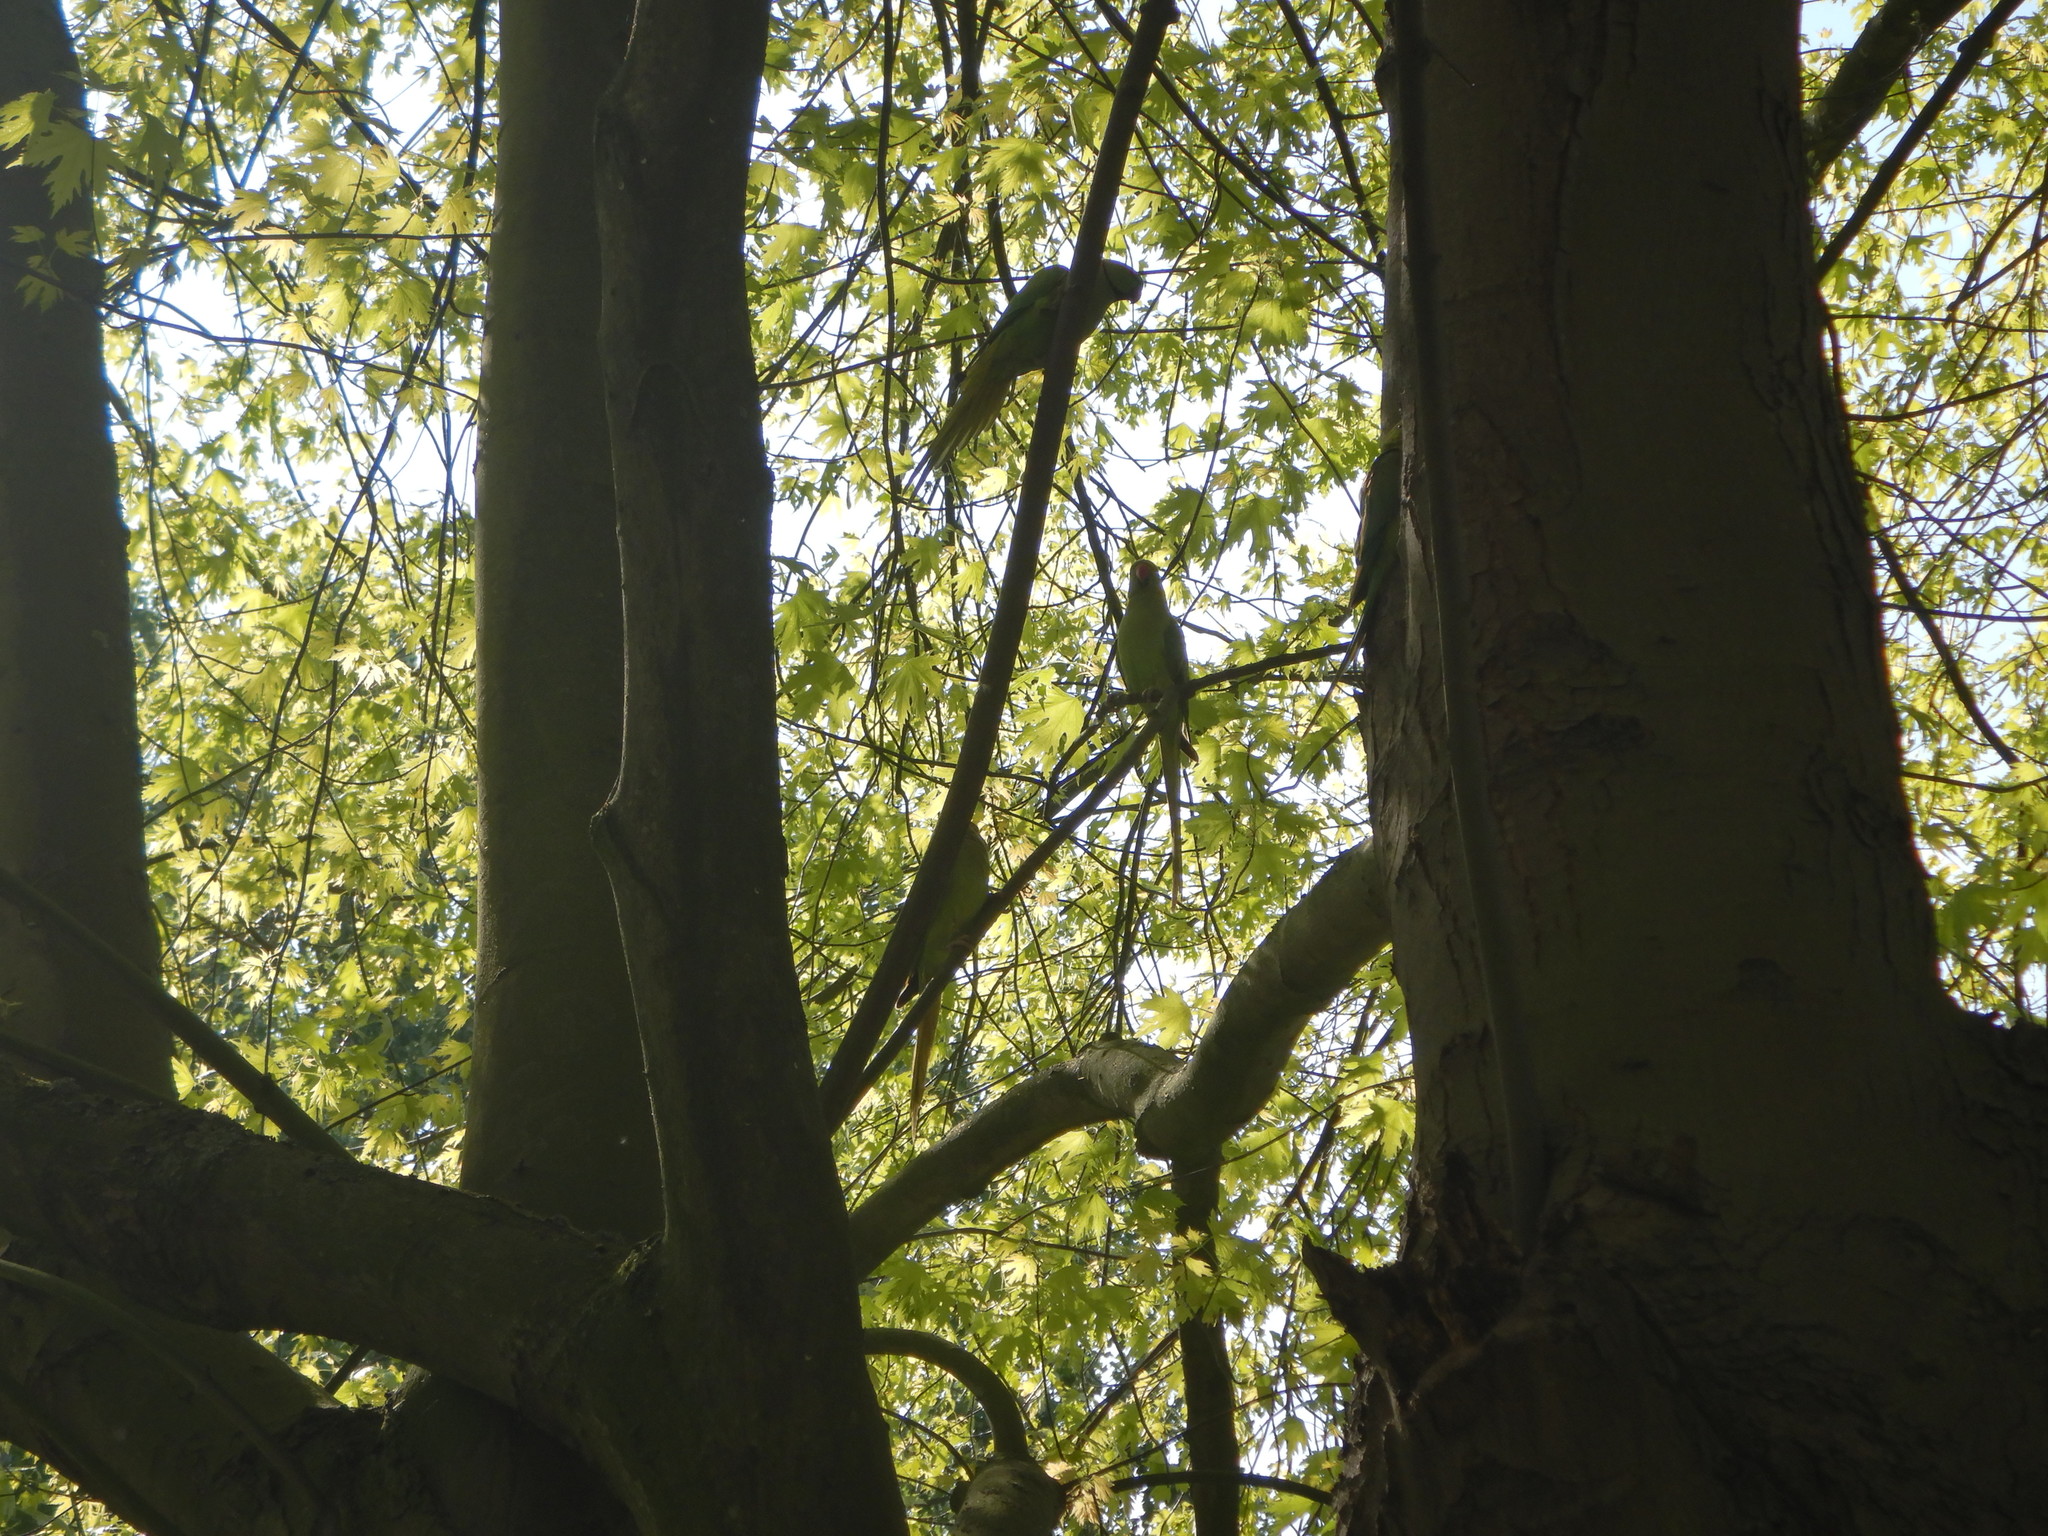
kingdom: Animalia
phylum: Chordata
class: Aves
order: Psittaciformes
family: Psittacidae
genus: Psittacula
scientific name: Psittacula krameri
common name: Rose-ringed parakeet
